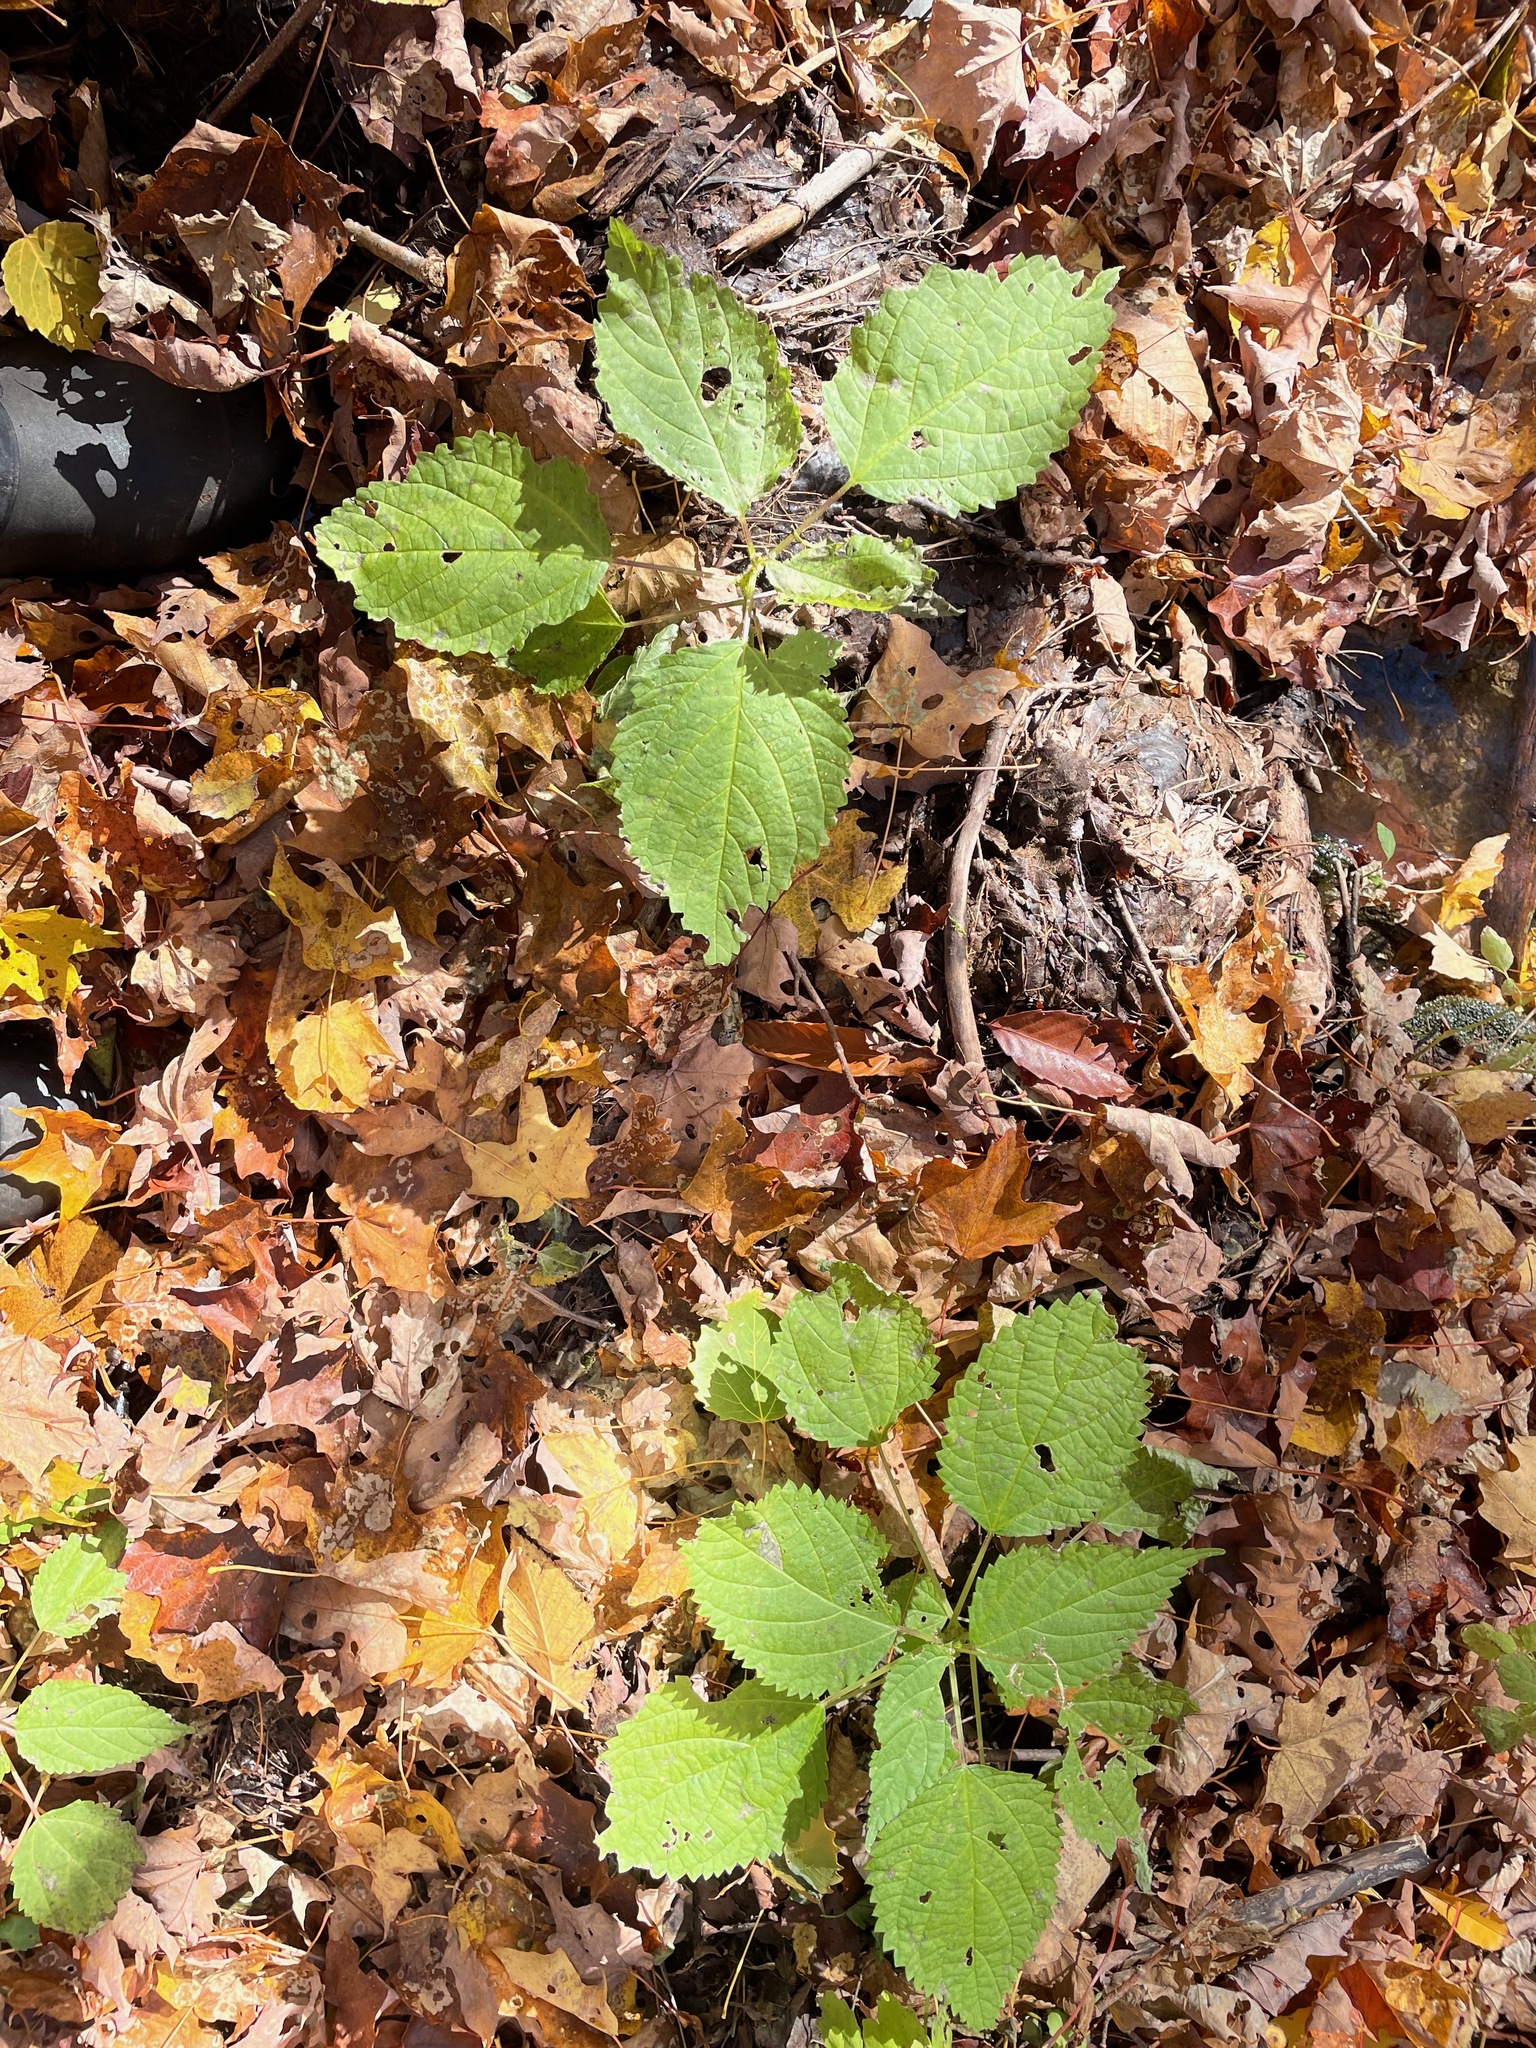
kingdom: Plantae
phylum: Tracheophyta
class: Magnoliopsida
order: Rosales
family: Urticaceae
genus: Laportea
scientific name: Laportea canadensis
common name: Canada nettle
